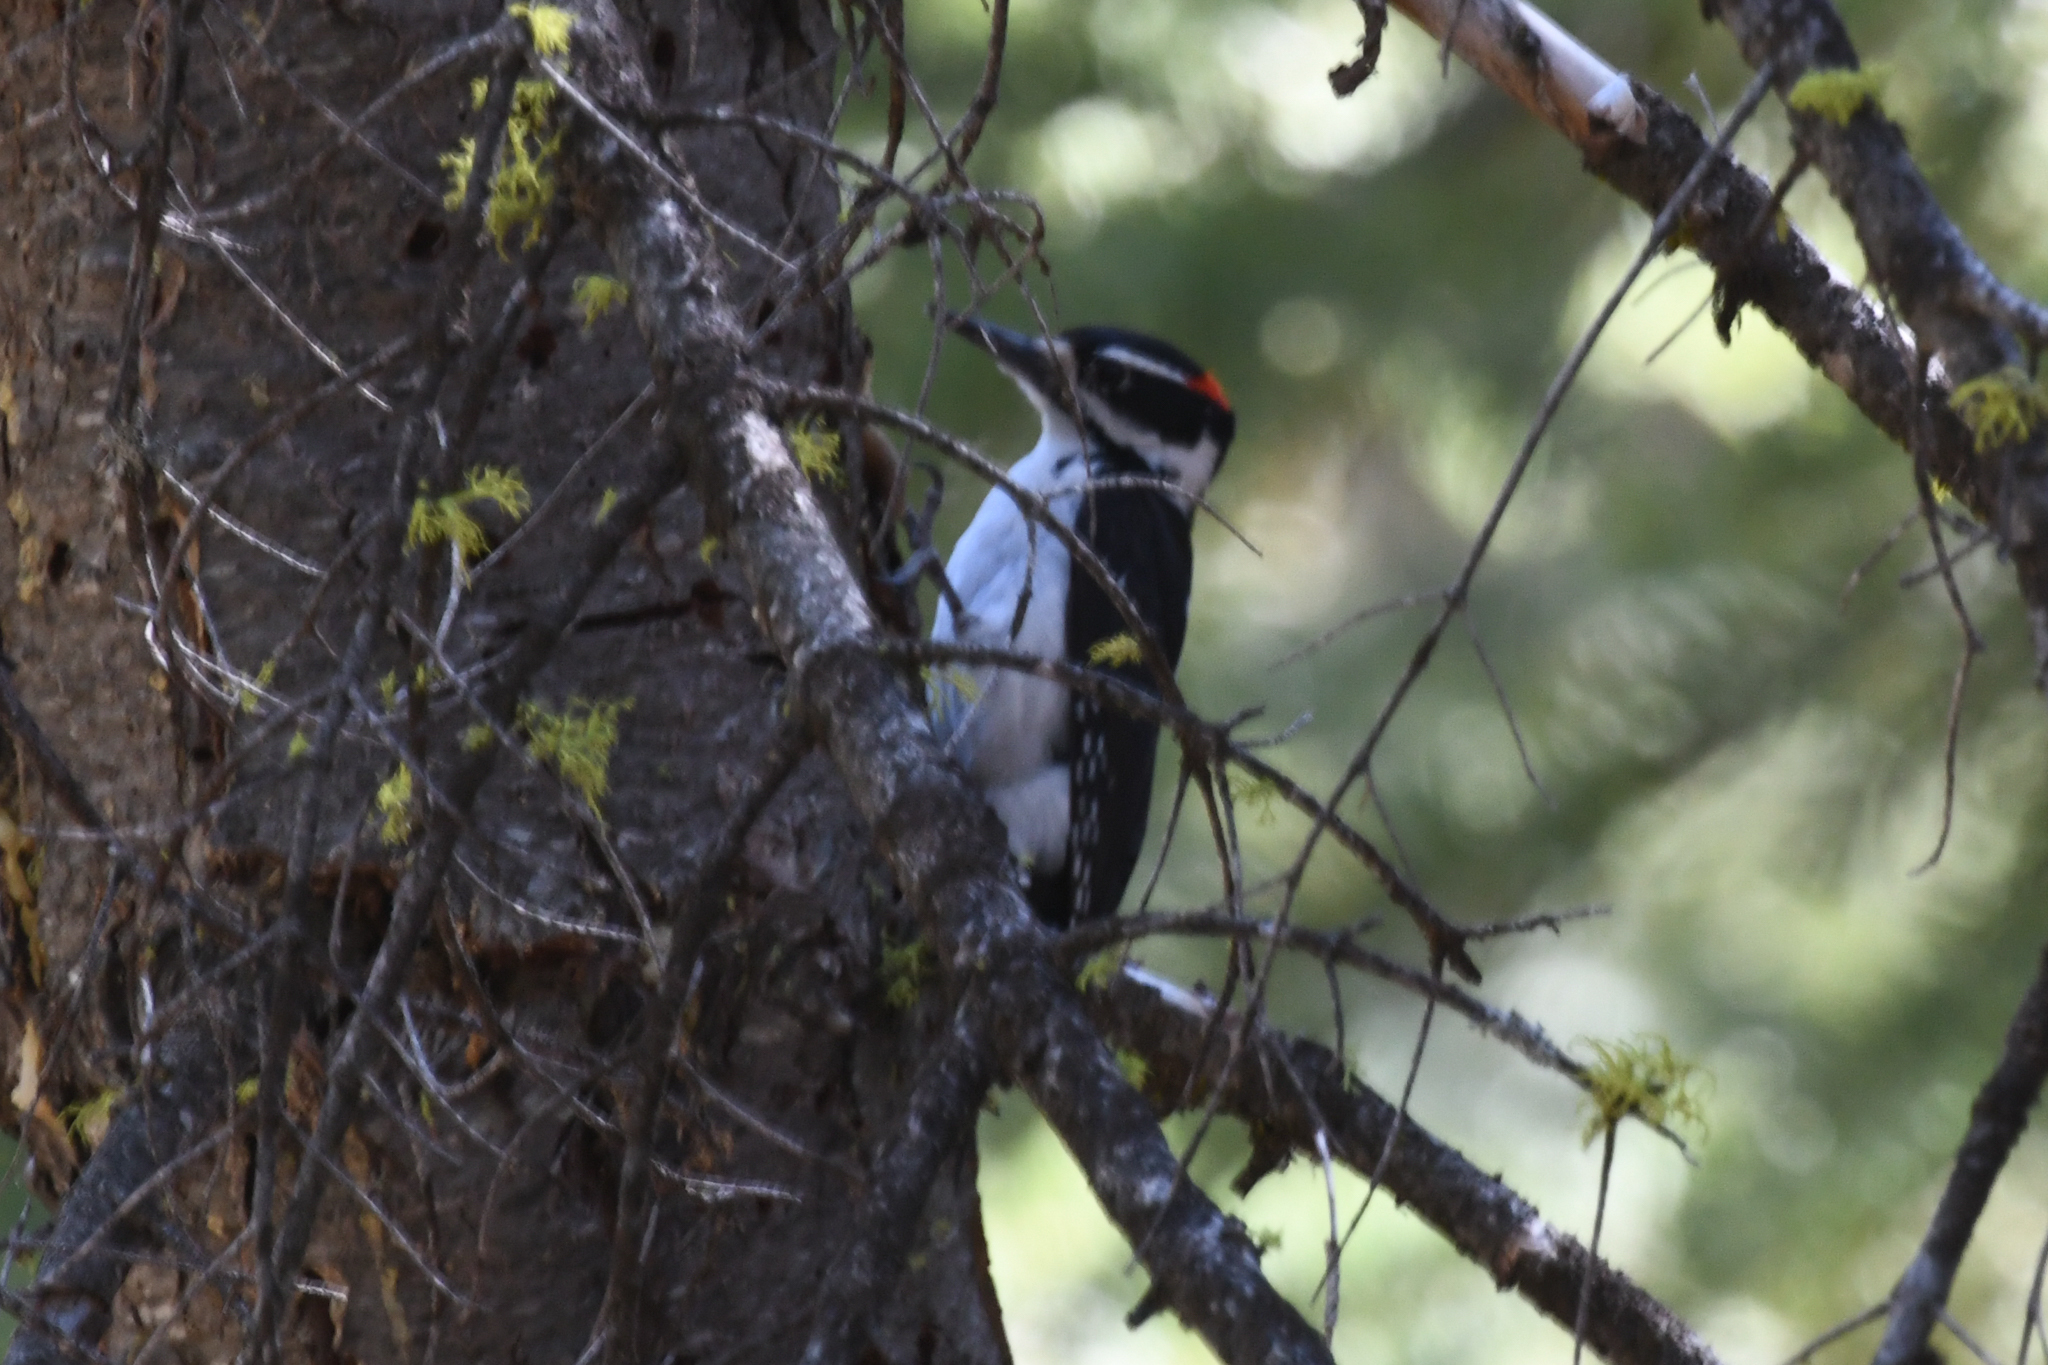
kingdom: Animalia
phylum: Chordata
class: Aves
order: Piciformes
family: Picidae
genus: Leuconotopicus
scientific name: Leuconotopicus villosus
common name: Hairy woodpecker
